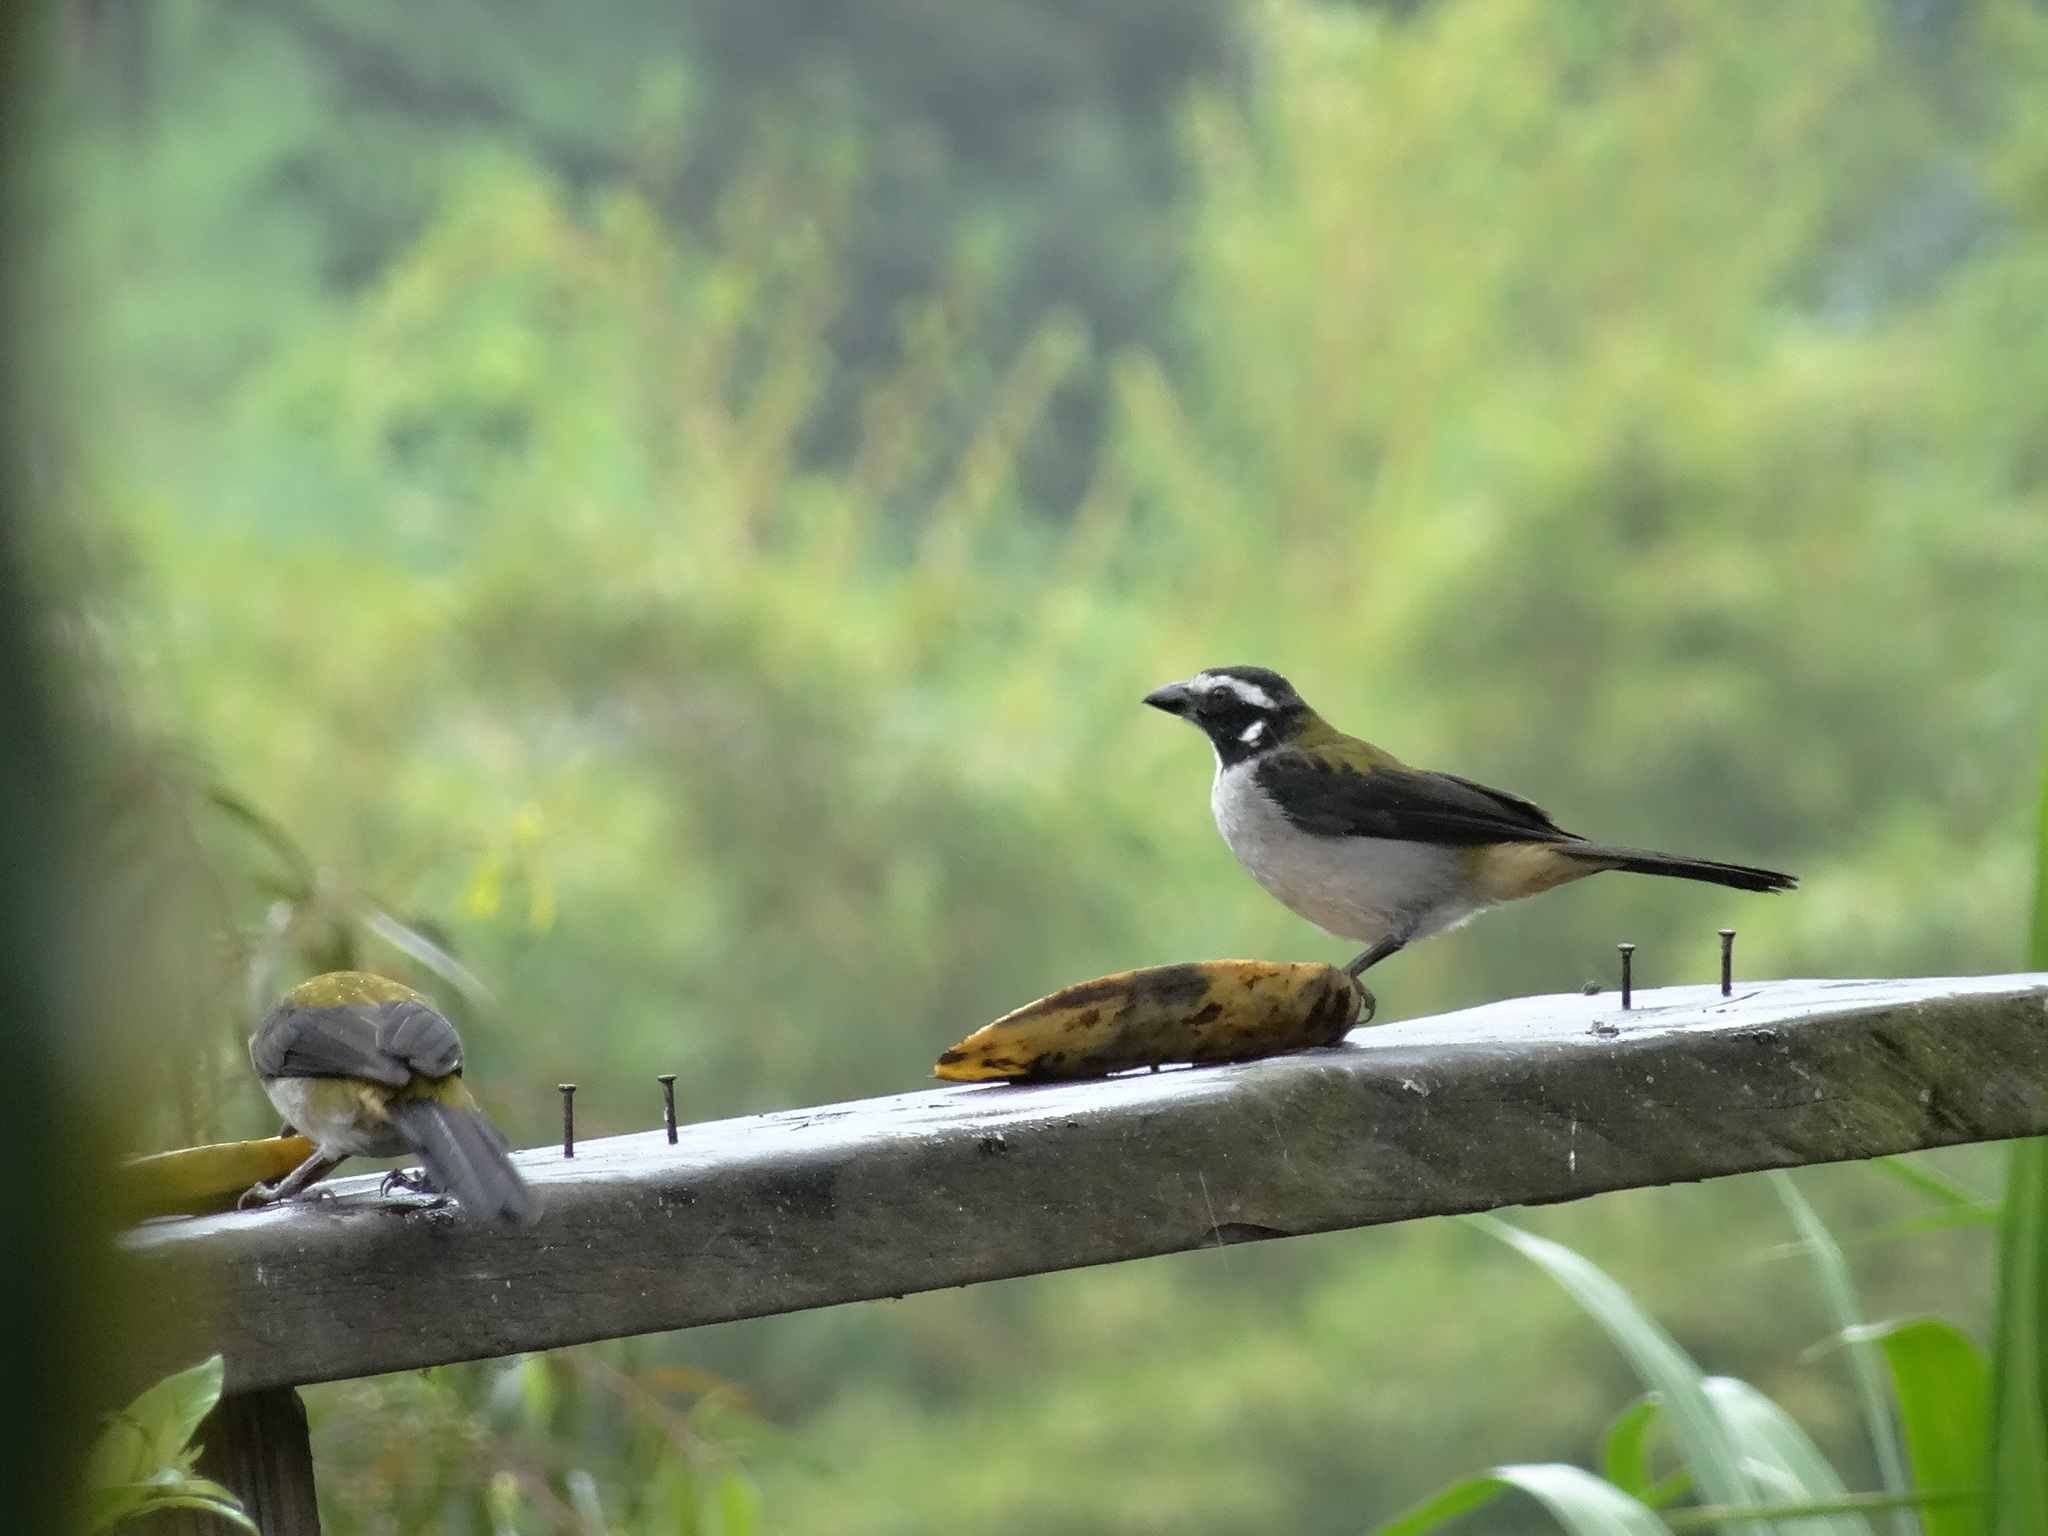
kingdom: Animalia
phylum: Chordata
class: Aves
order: Passeriformes
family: Thraupidae
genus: Saltator
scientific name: Saltator atripennis
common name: Black-winged saltator
